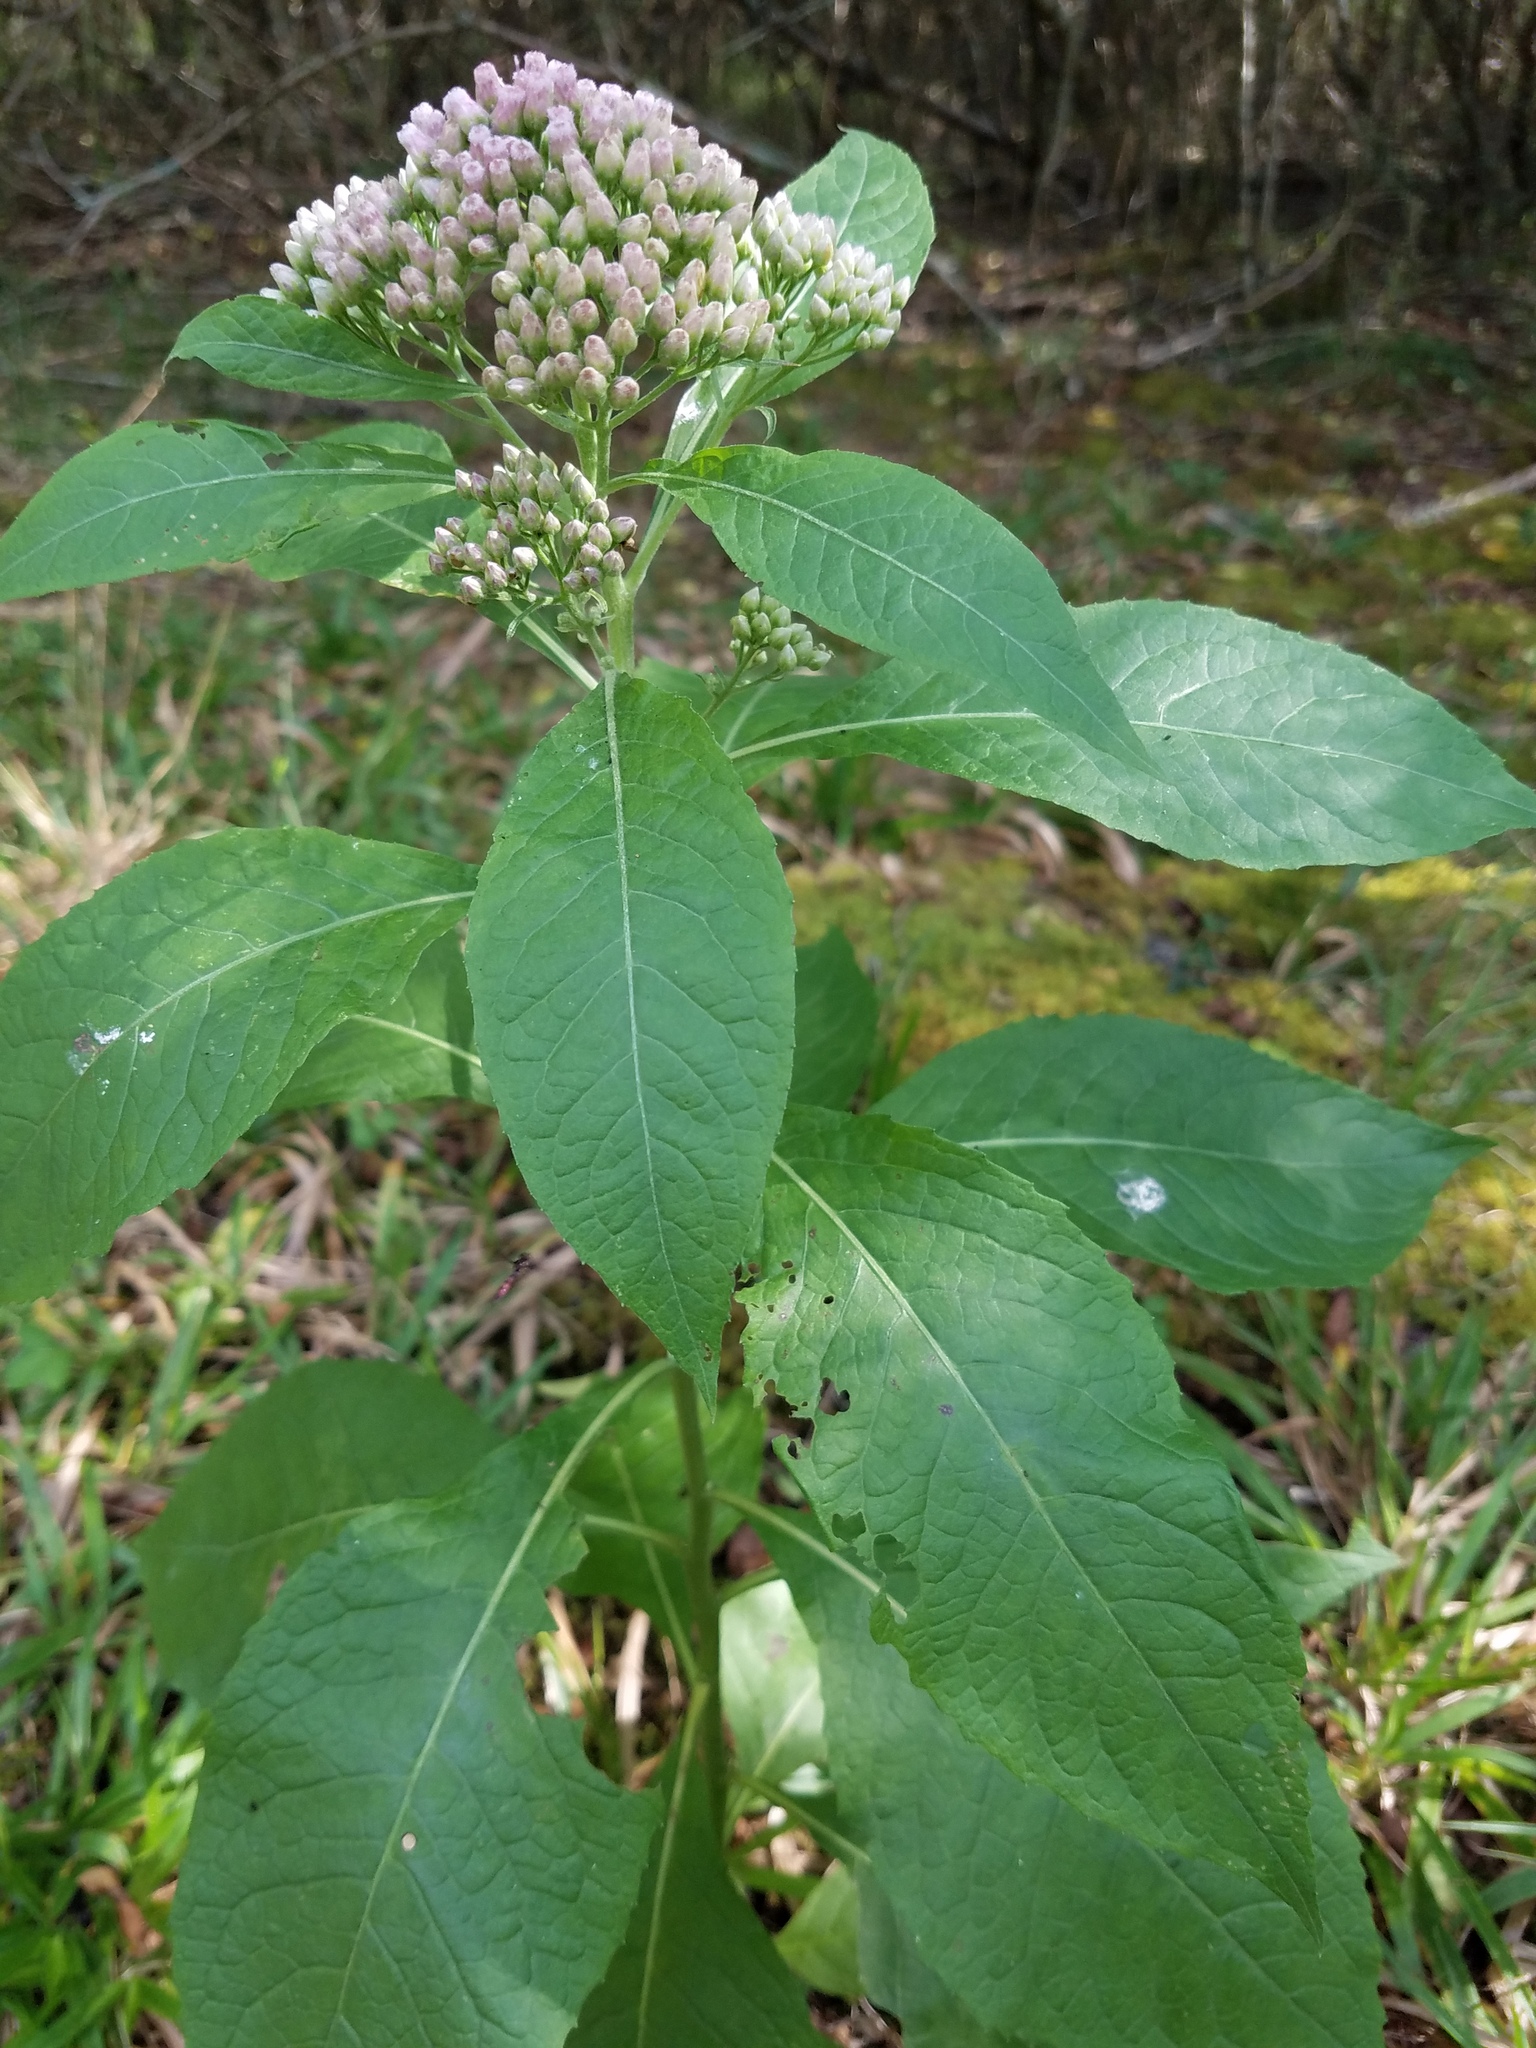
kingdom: Plantae
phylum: Tracheophyta
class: Magnoliopsida
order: Asterales
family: Asteraceae
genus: Pluchea
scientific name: Pluchea camphorata
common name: Camphor pluchea
